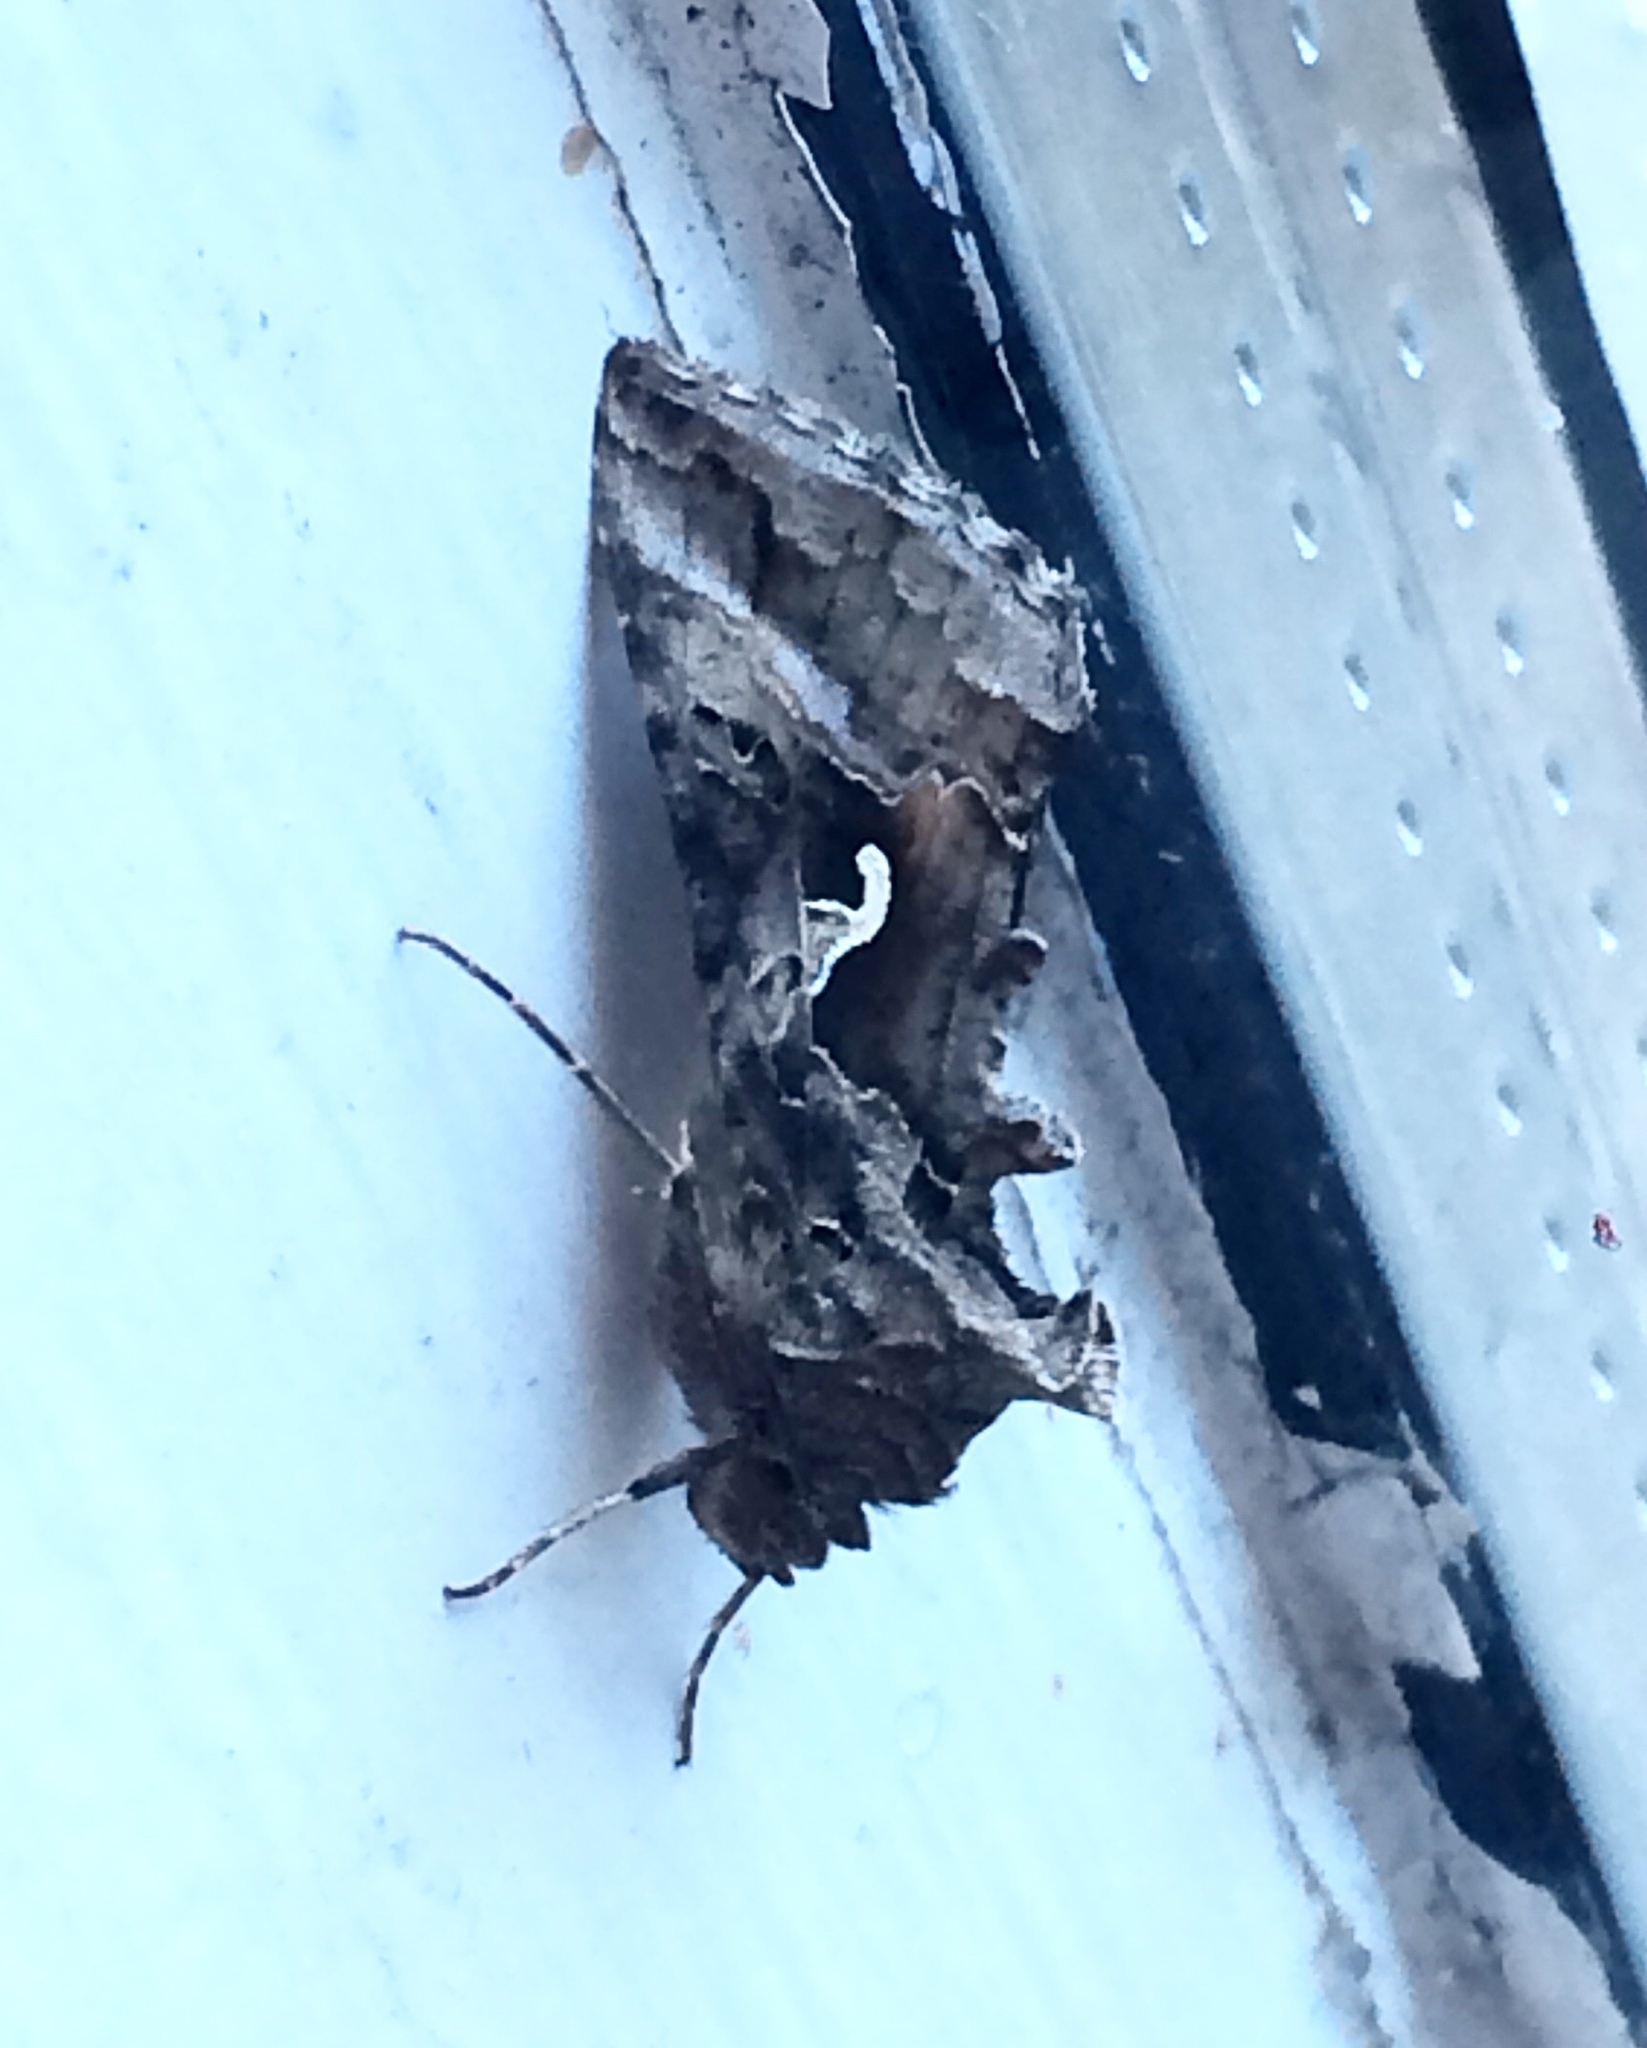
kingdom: Animalia
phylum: Arthropoda
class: Insecta
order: Lepidoptera
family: Noctuidae
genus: Autographa
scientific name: Autographa gamma
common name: Silver y
